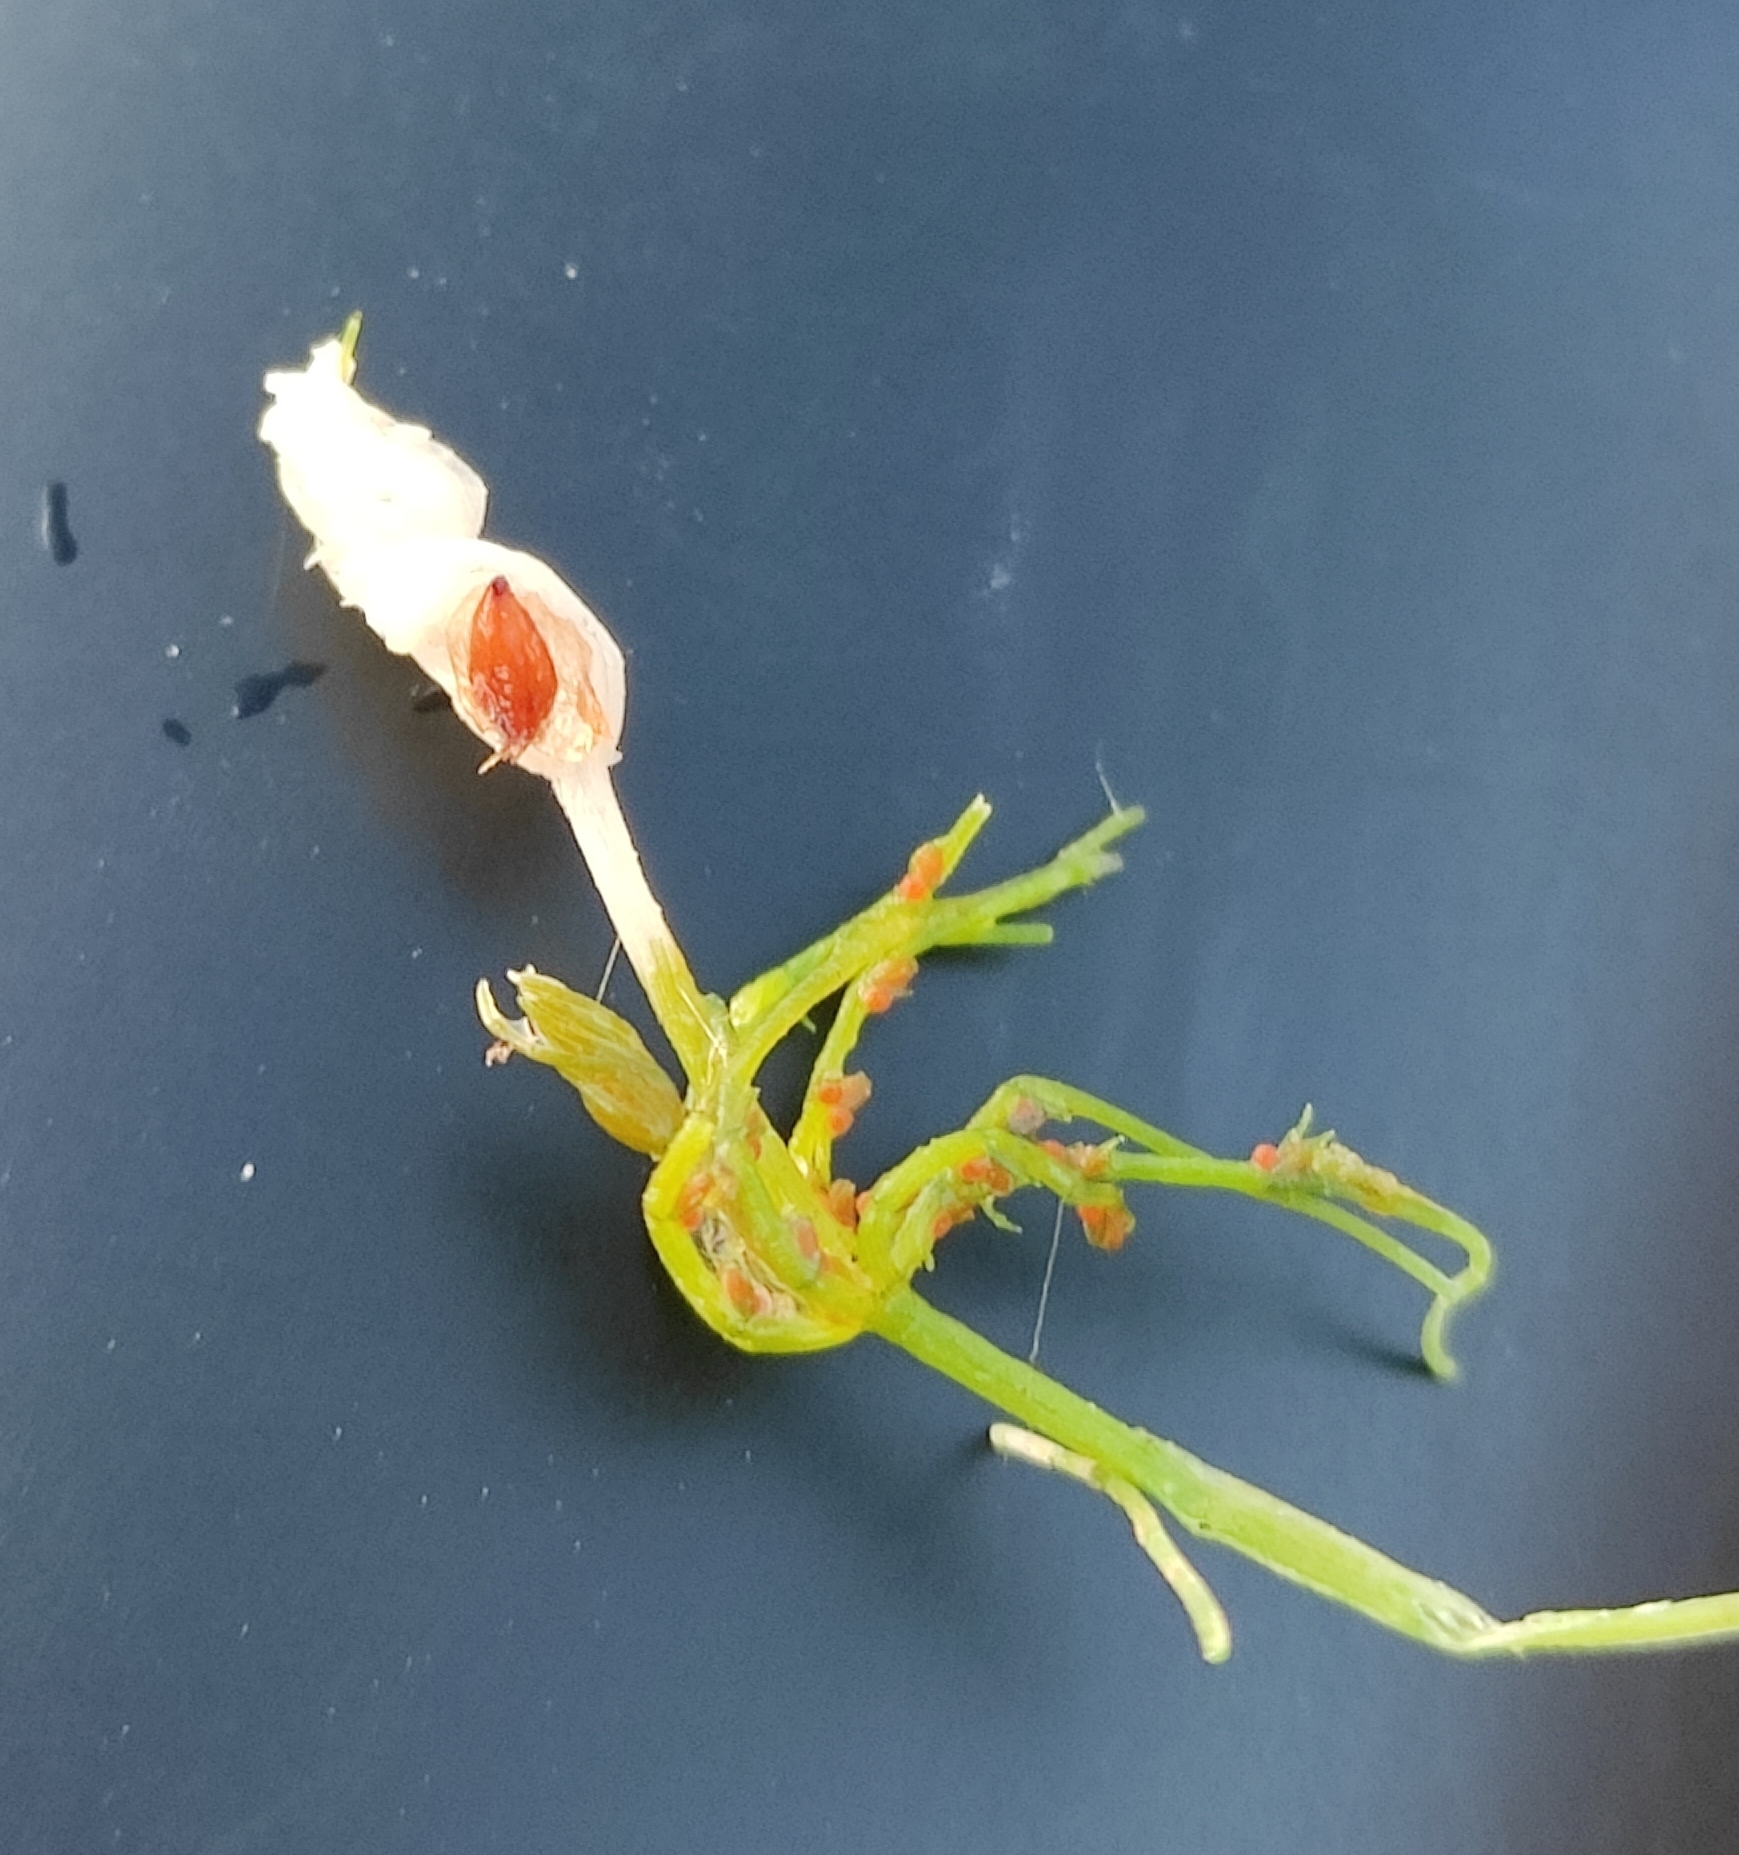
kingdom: Plantae
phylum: Charophyta
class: Charophyceae
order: Charales
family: Characeae
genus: Chara
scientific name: Chara contraria
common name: Opposite stonewort
